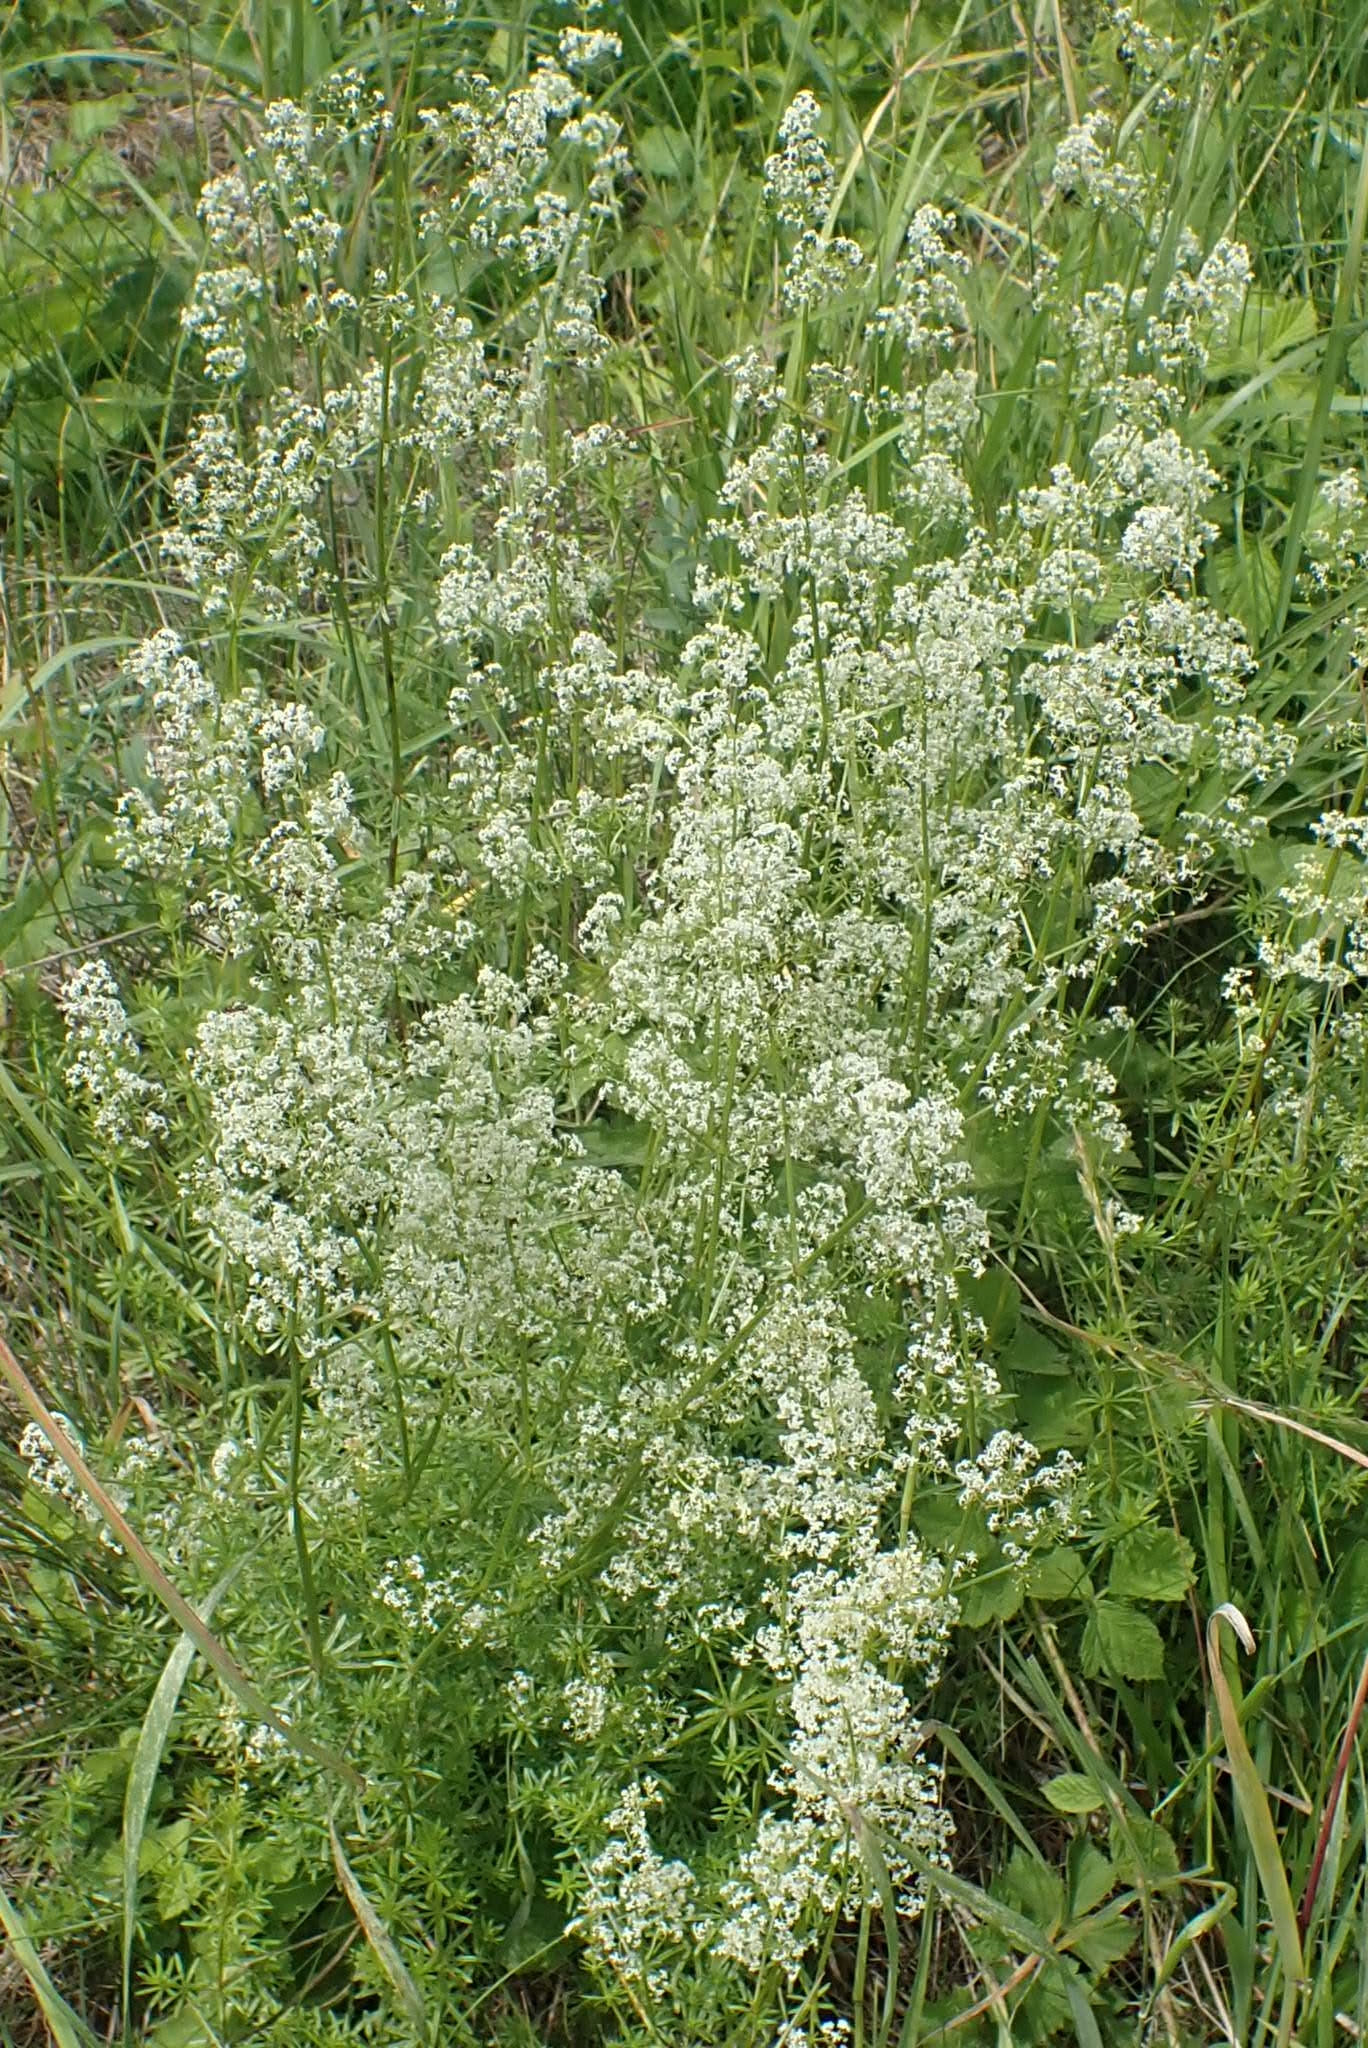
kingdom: Plantae
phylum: Tracheophyta
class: Magnoliopsida
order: Gentianales
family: Rubiaceae
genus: Galium
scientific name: Galium mollugo
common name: Hedge bedstraw
